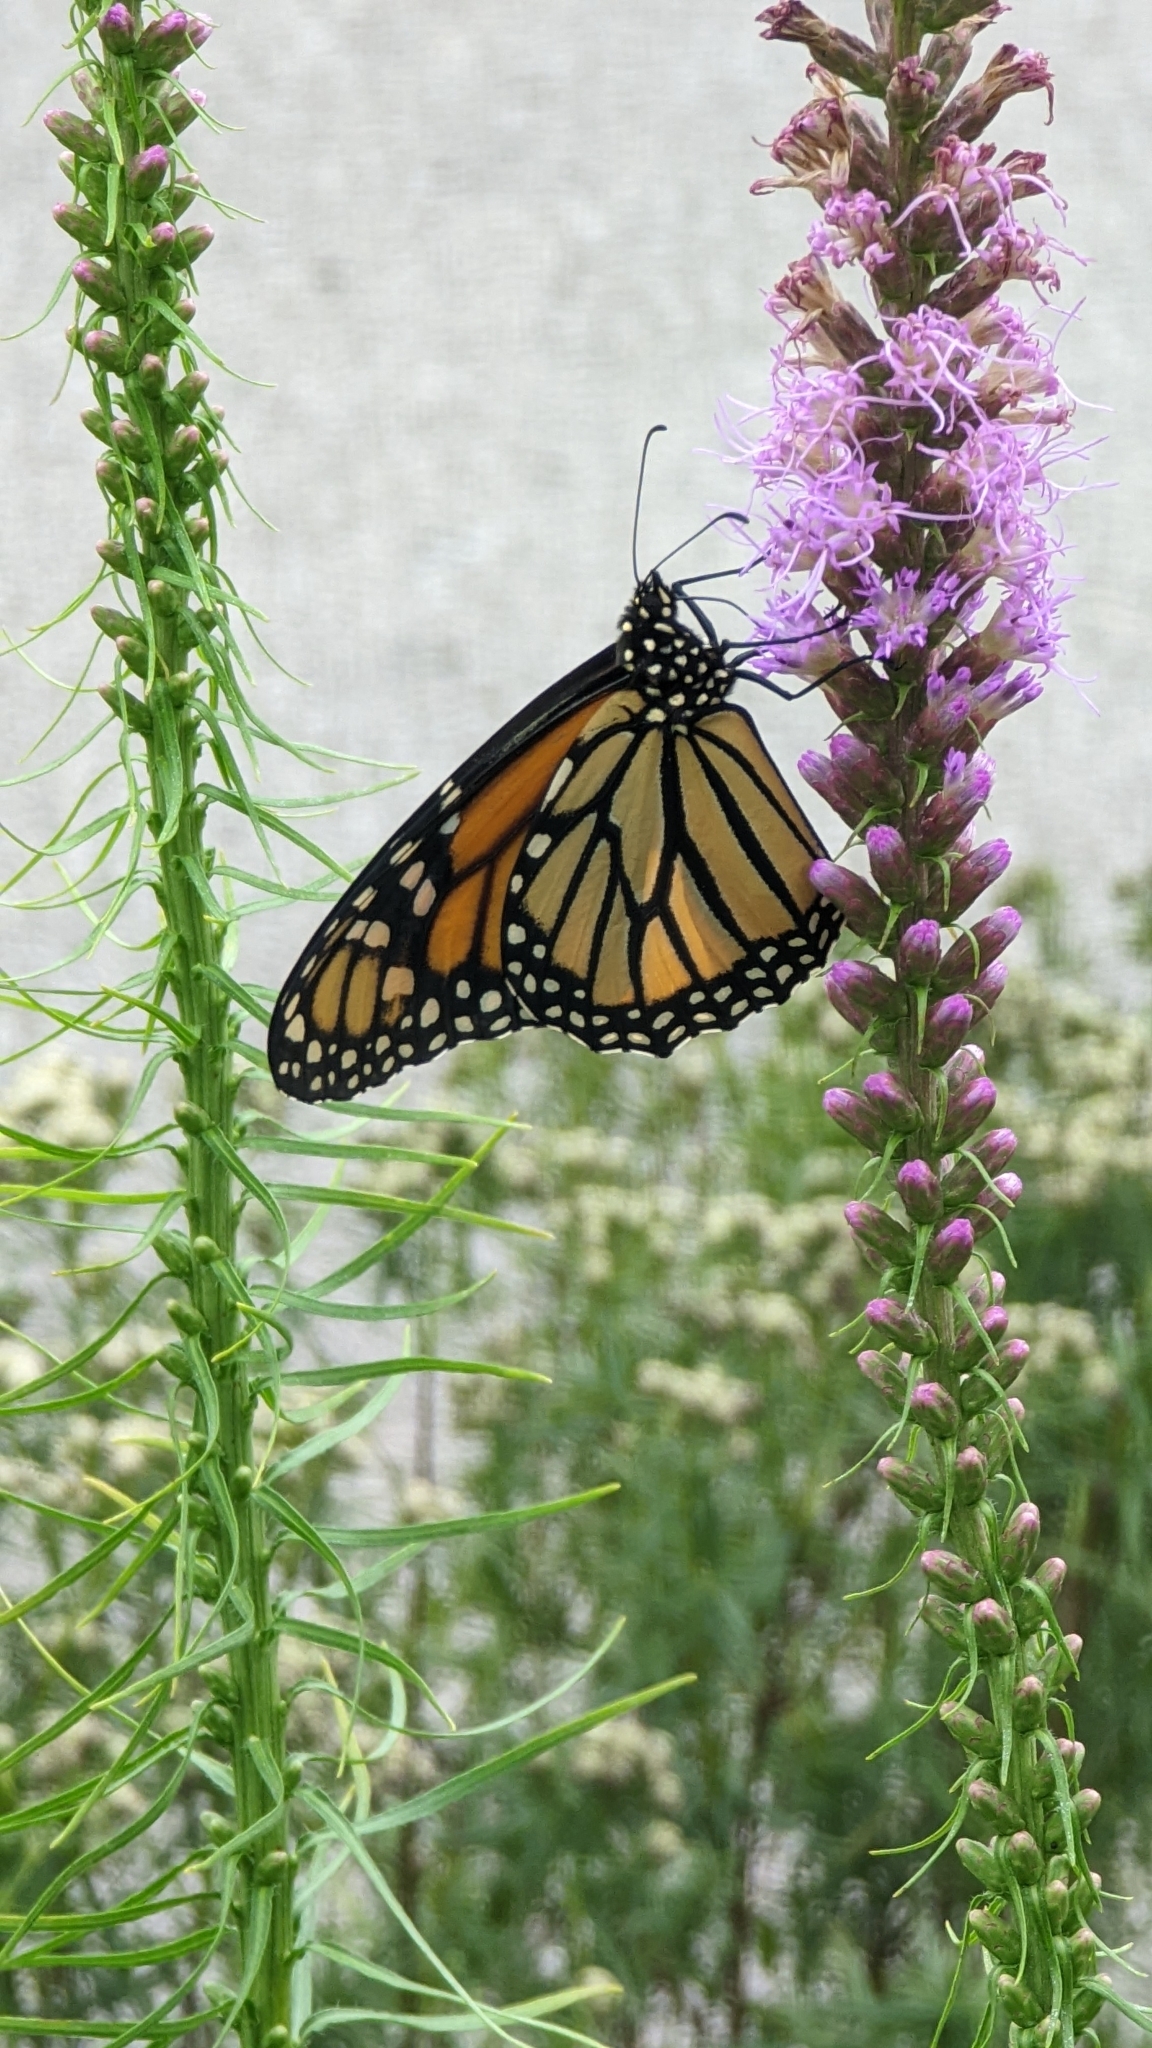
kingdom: Animalia
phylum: Arthropoda
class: Insecta
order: Lepidoptera
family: Nymphalidae
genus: Danaus
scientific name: Danaus plexippus
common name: Monarch
